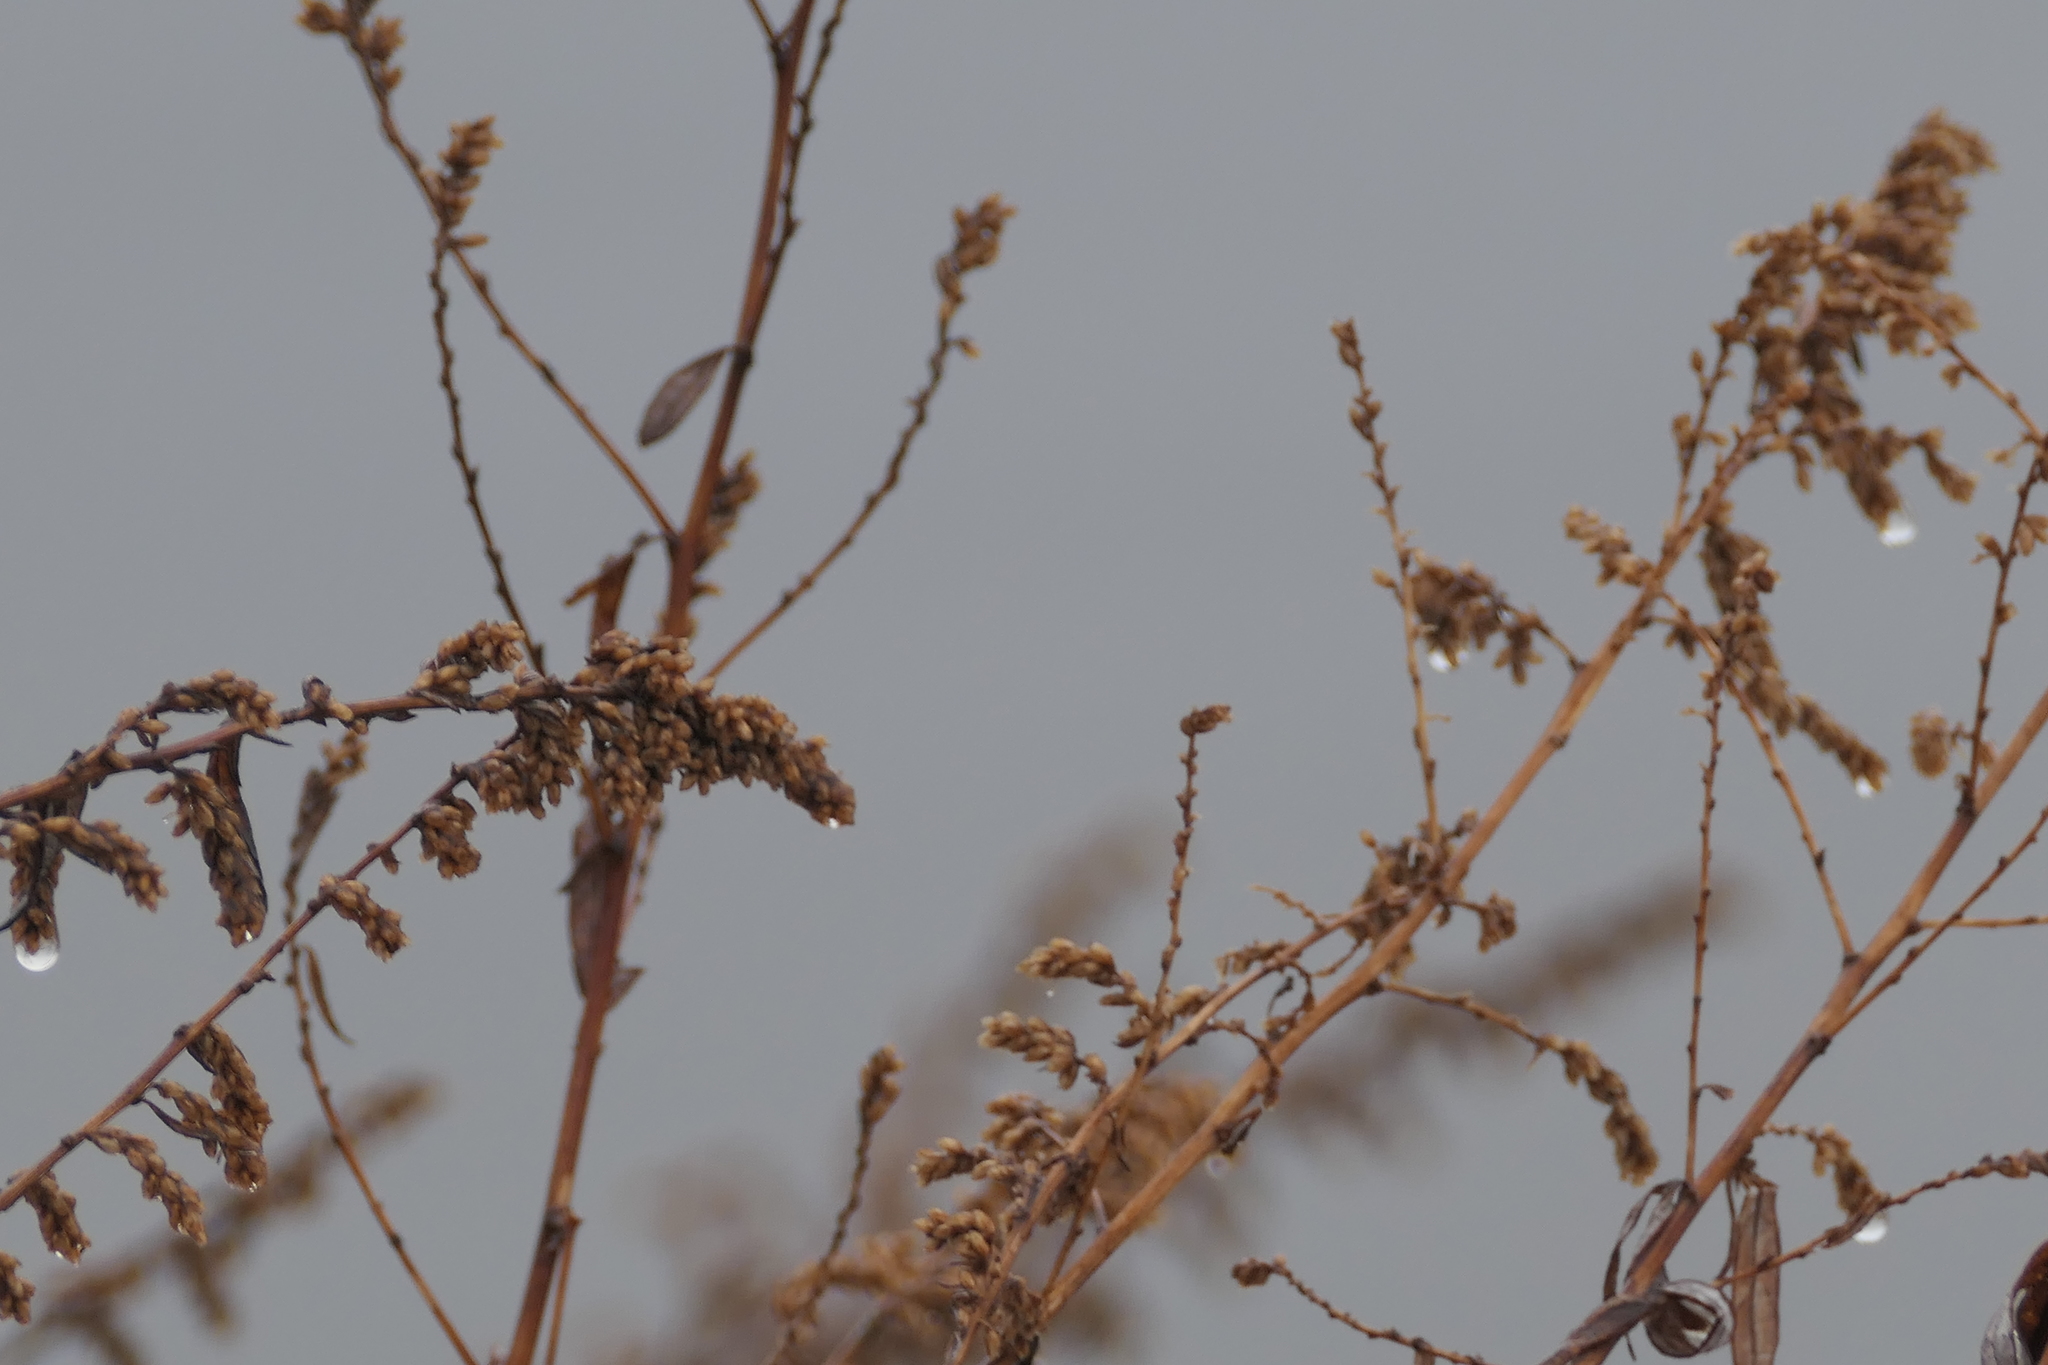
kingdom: Plantae
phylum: Tracheophyta
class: Magnoliopsida
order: Asterales
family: Asteraceae
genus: Artemisia
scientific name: Artemisia vulgaris
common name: Mugwort
